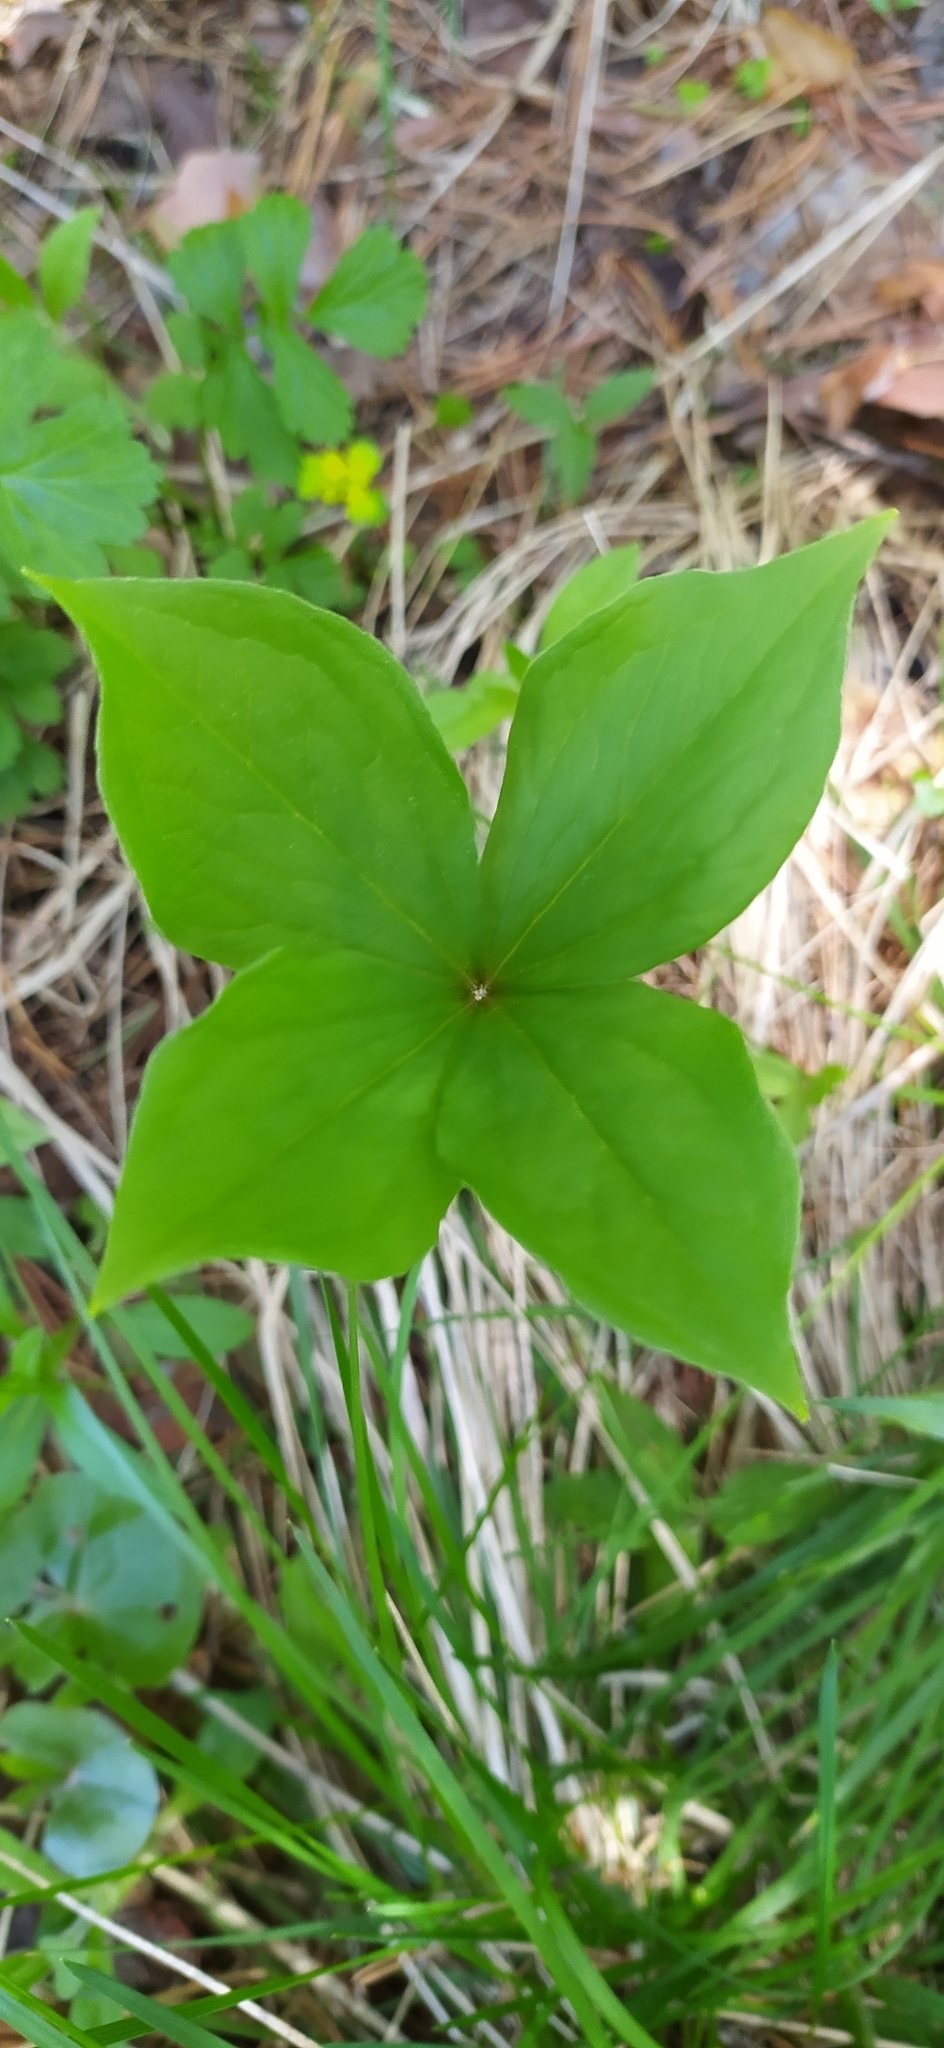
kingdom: Plantae
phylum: Tracheophyta
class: Liliopsida
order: Liliales
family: Melanthiaceae
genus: Paris
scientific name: Paris quadrifolia
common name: Herb-paris
